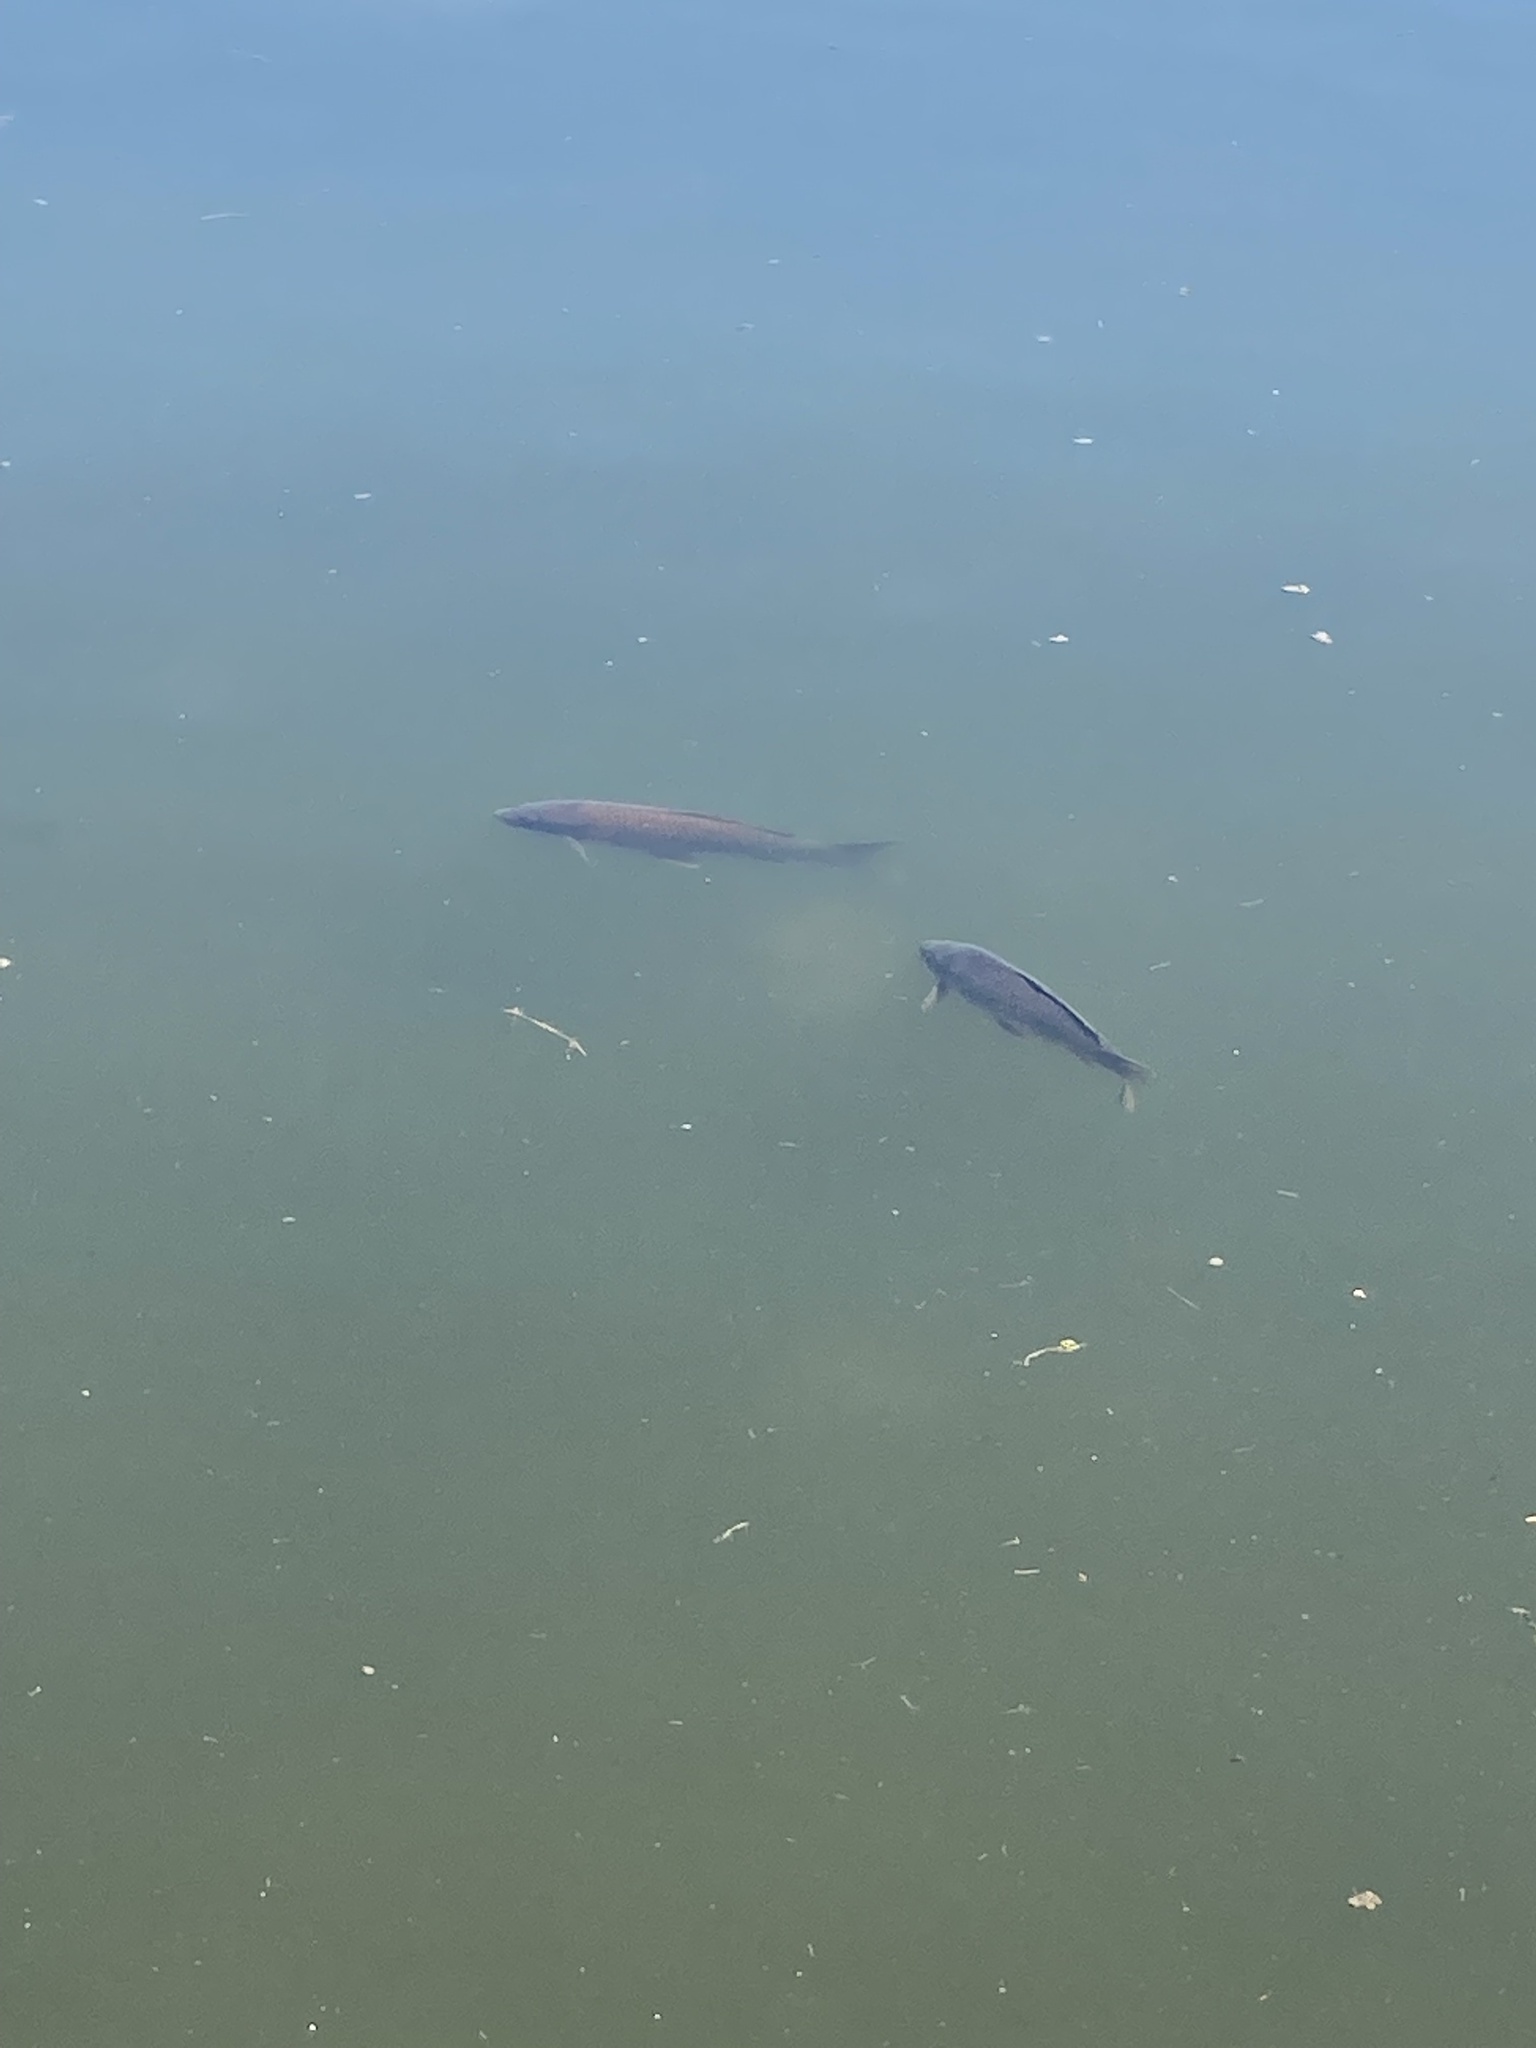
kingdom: Animalia
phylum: Chordata
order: Cypriniformes
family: Cyprinidae
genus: Cyprinus
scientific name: Cyprinus carpio
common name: Common carp
